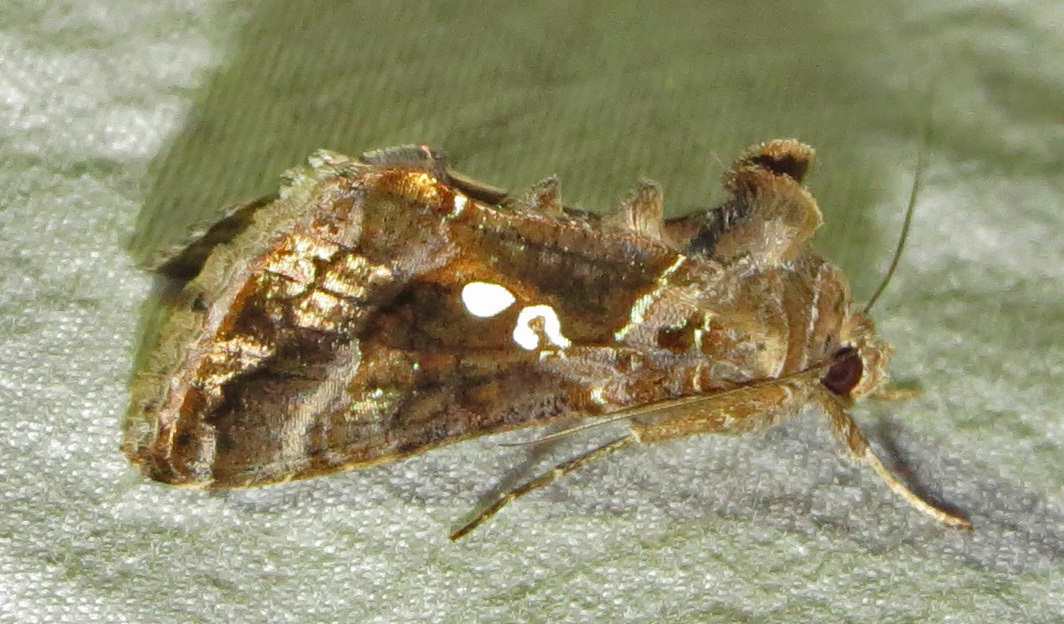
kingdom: Animalia
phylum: Arthropoda
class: Insecta
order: Lepidoptera
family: Noctuidae
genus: Chrysodeixis
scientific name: Chrysodeixis includens
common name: Cutworm moth
